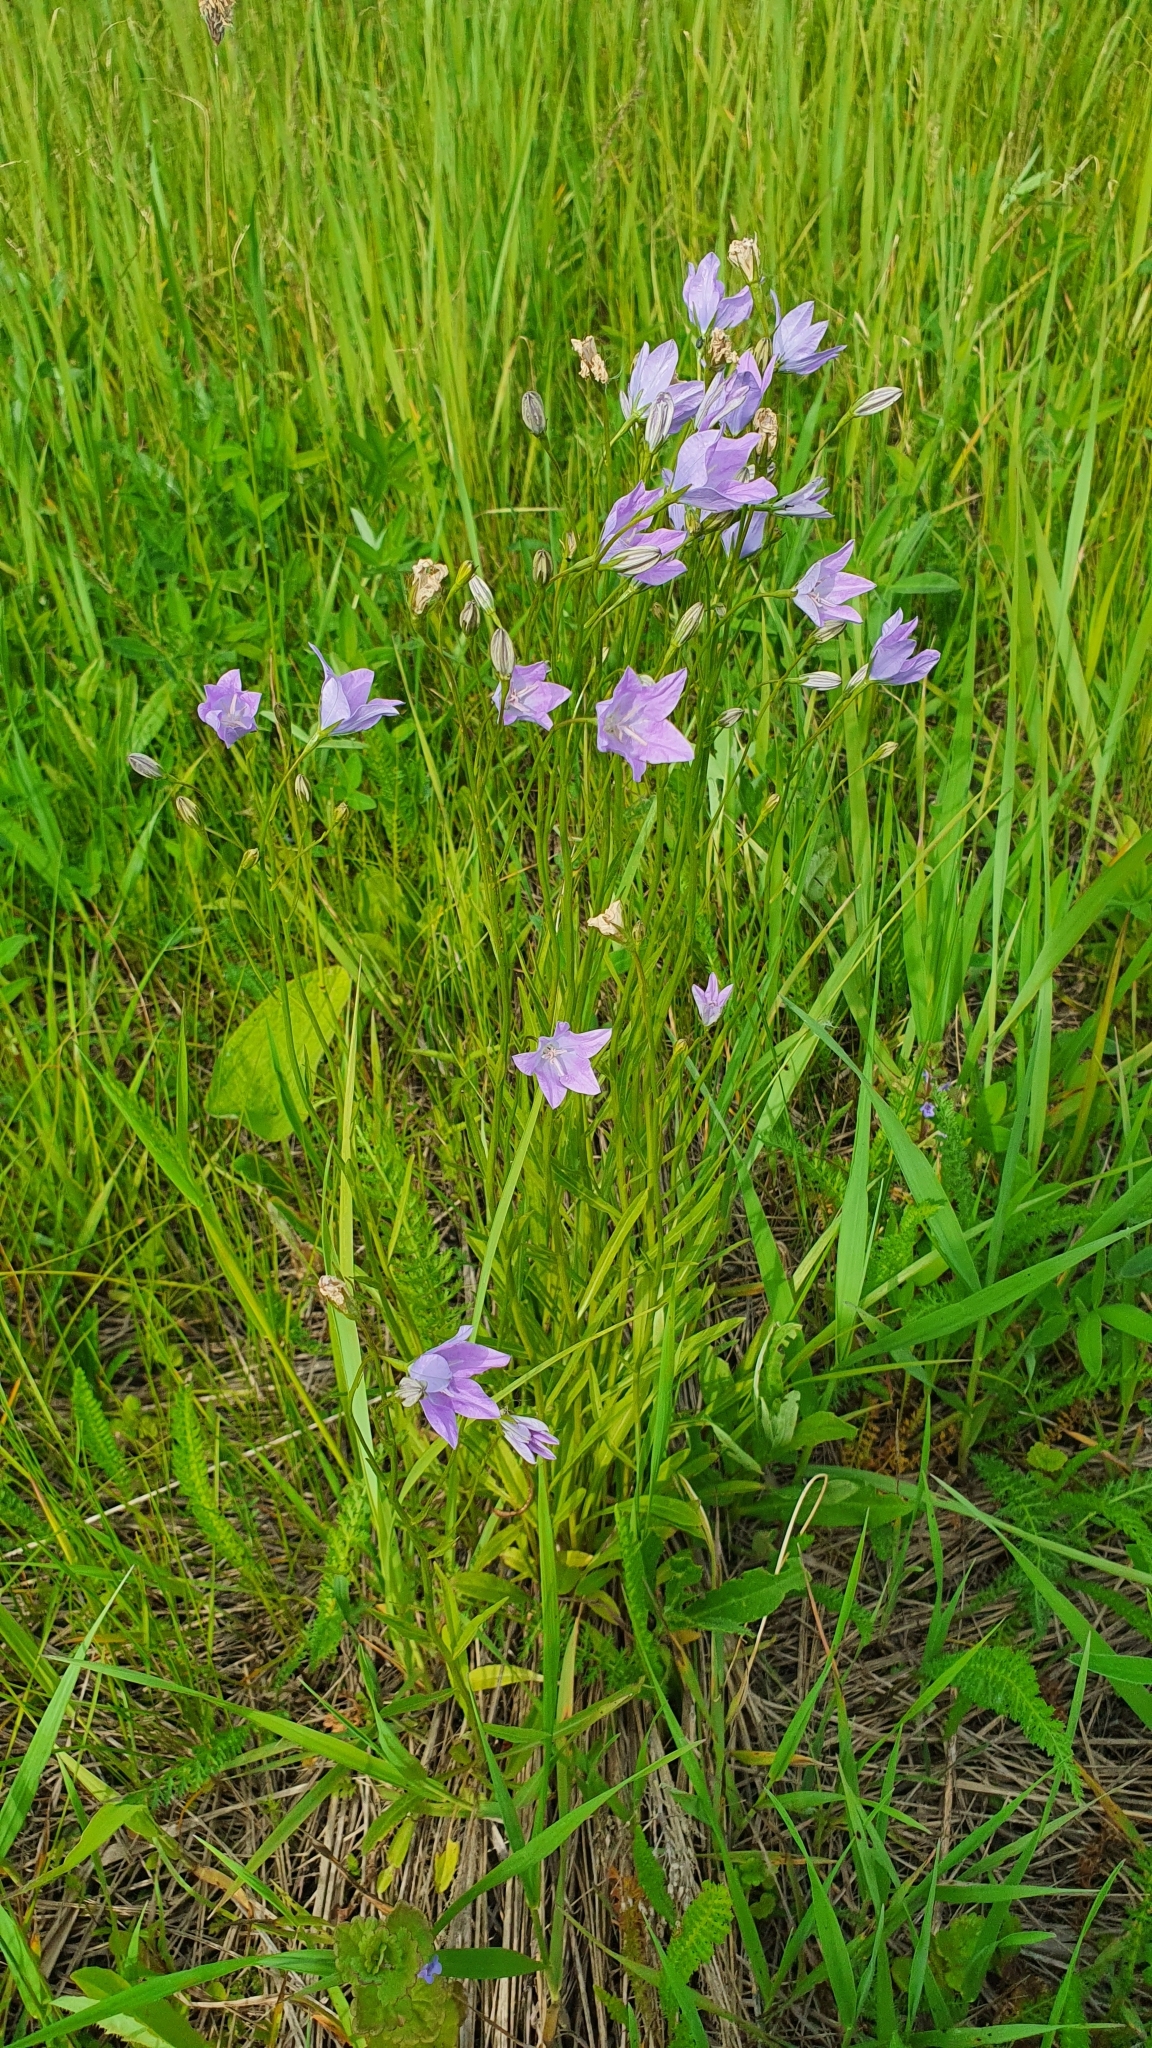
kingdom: Plantae
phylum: Tracheophyta
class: Magnoliopsida
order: Asterales
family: Campanulaceae
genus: Campanula
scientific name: Campanula stevenii
